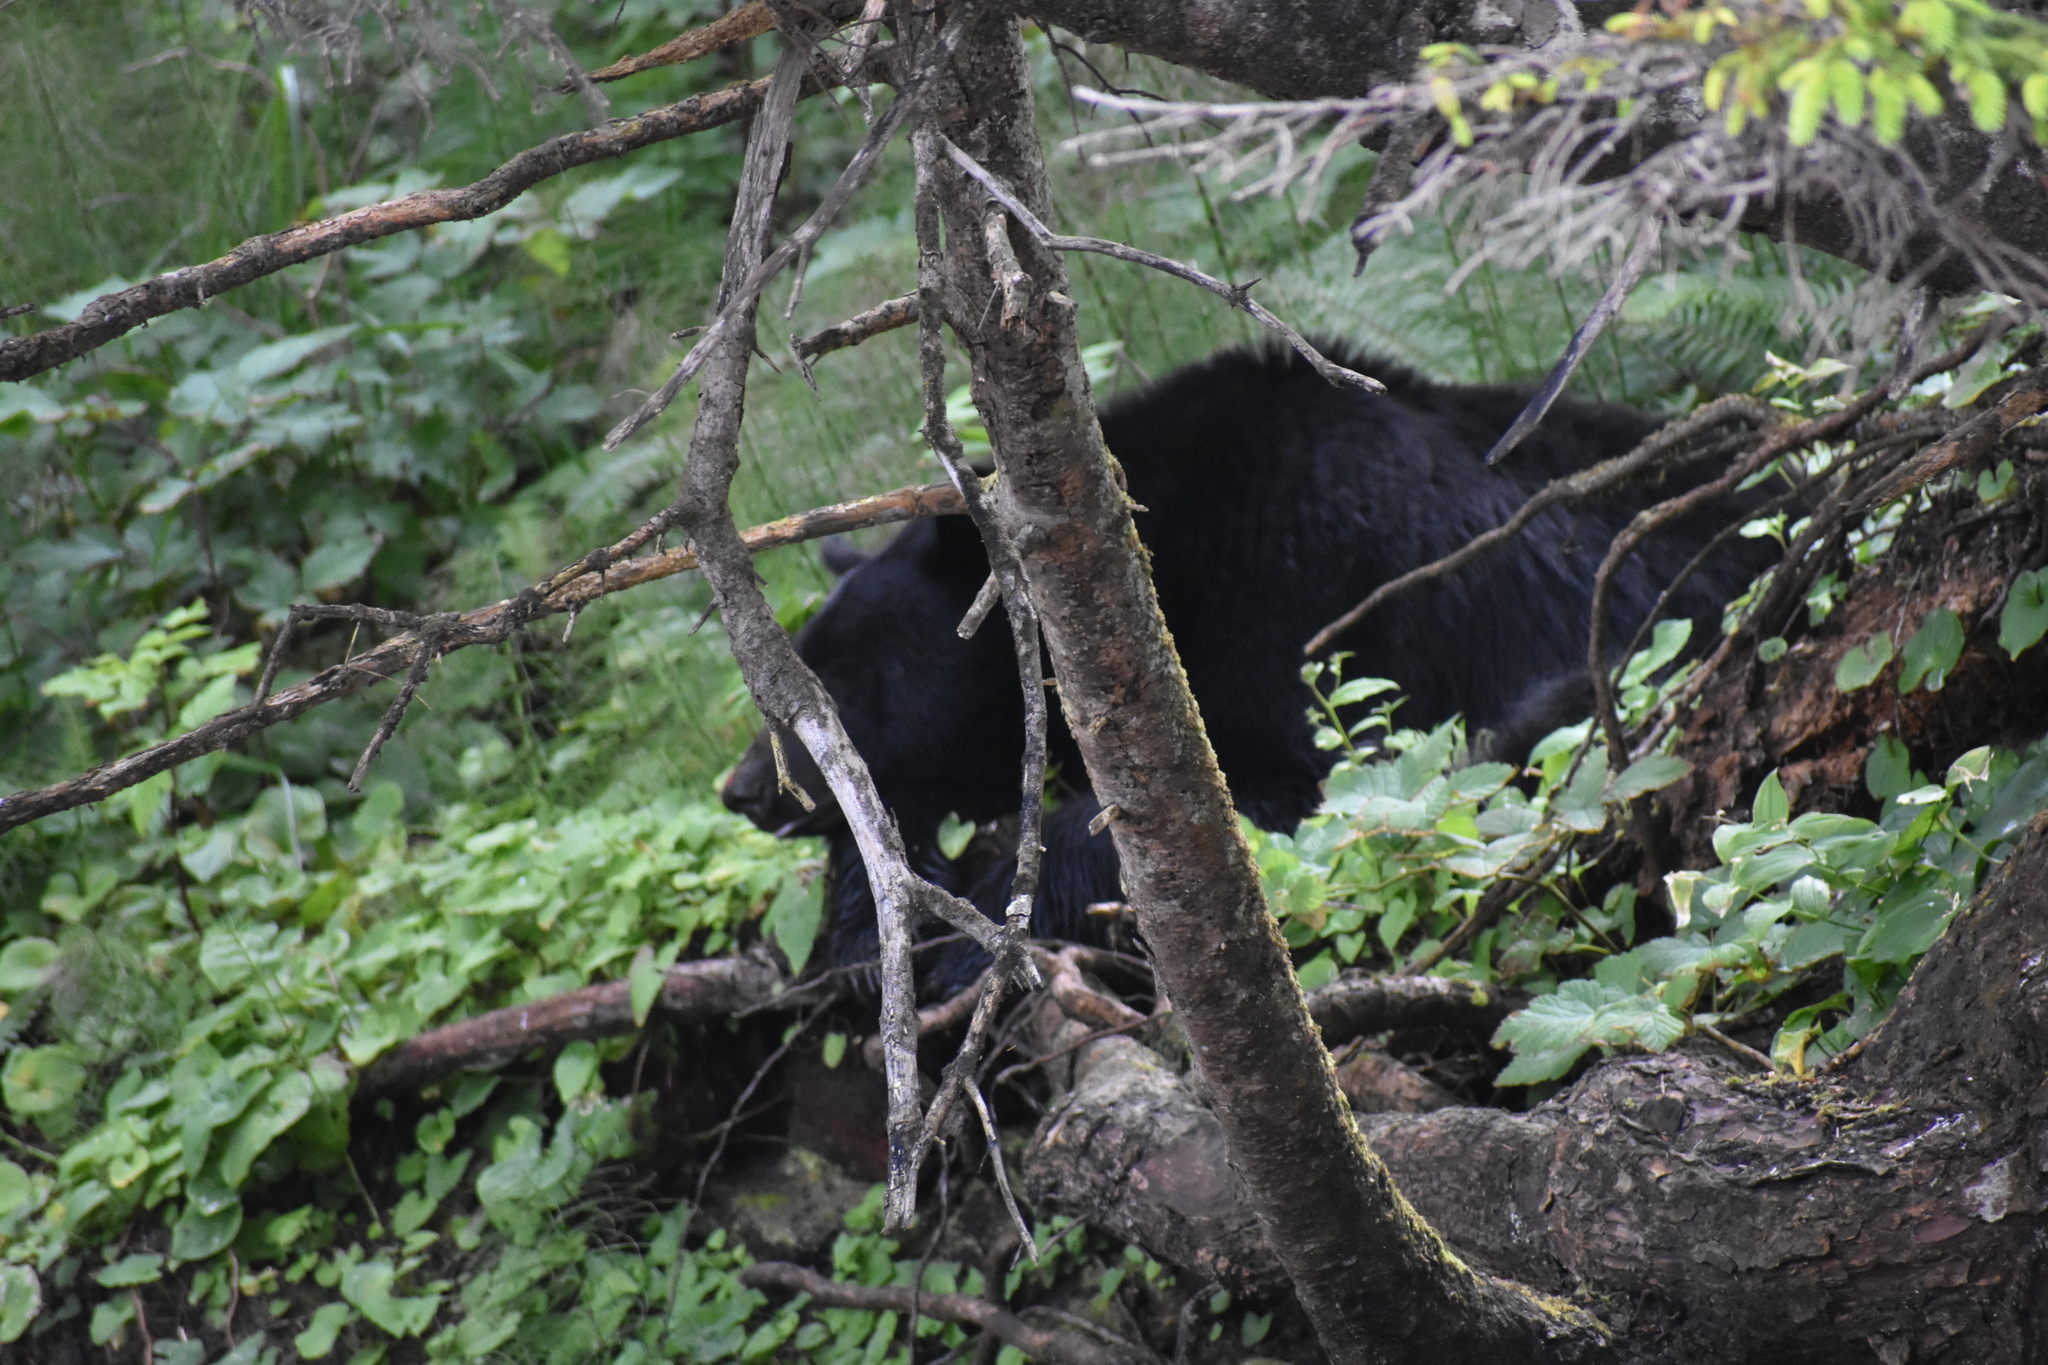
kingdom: Animalia
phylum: Chordata
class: Mammalia
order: Carnivora
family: Ursidae
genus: Ursus
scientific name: Ursus americanus
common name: American black bear
